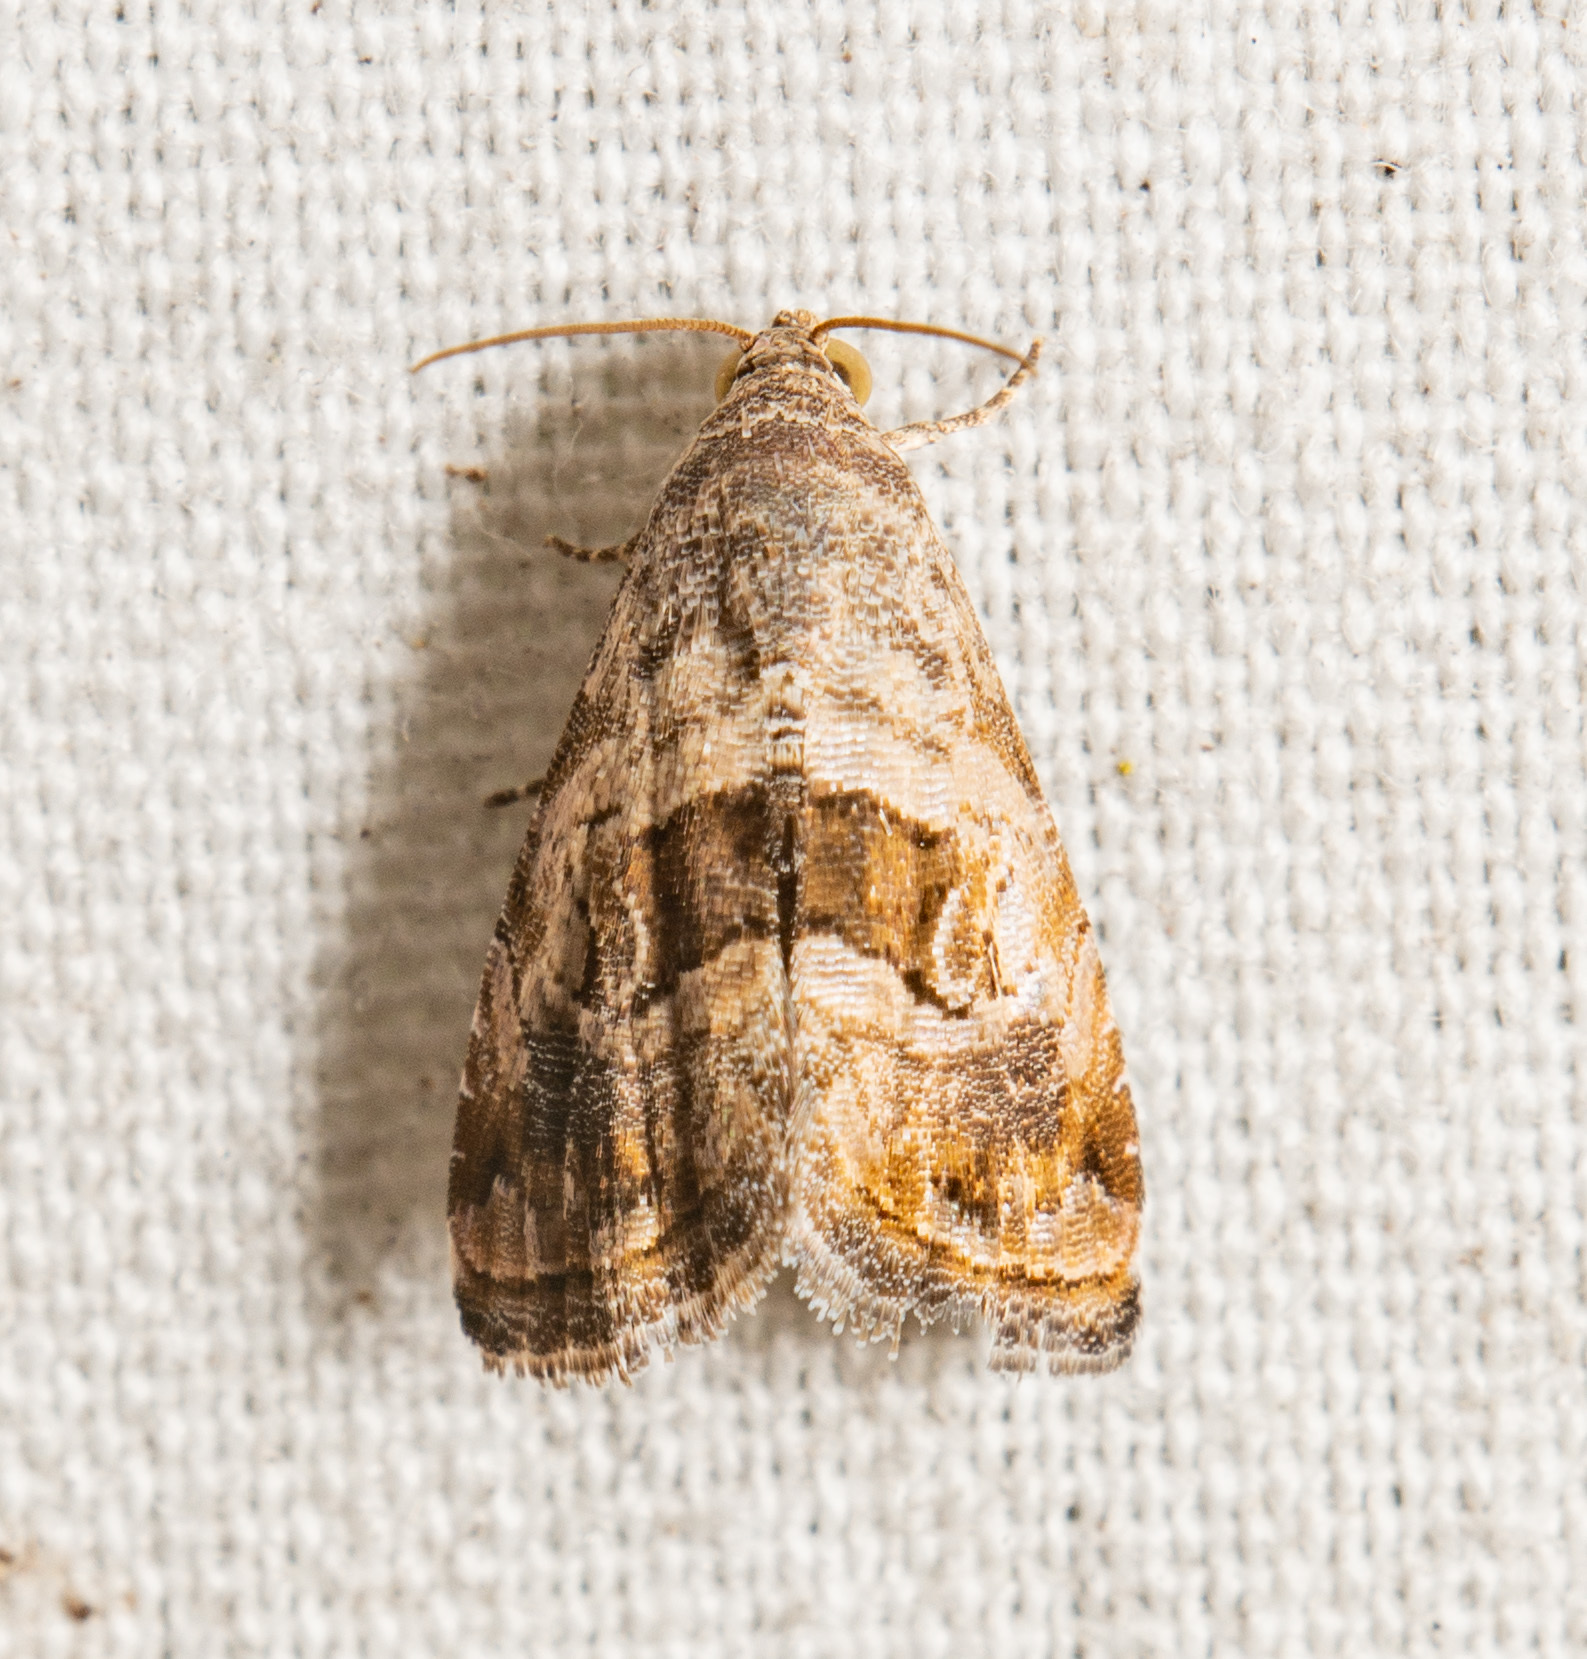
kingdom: Animalia
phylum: Arthropoda
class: Insecta
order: Lepidoptera
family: Noctuidae
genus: Tripudia
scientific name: Tripudia quadrifera
